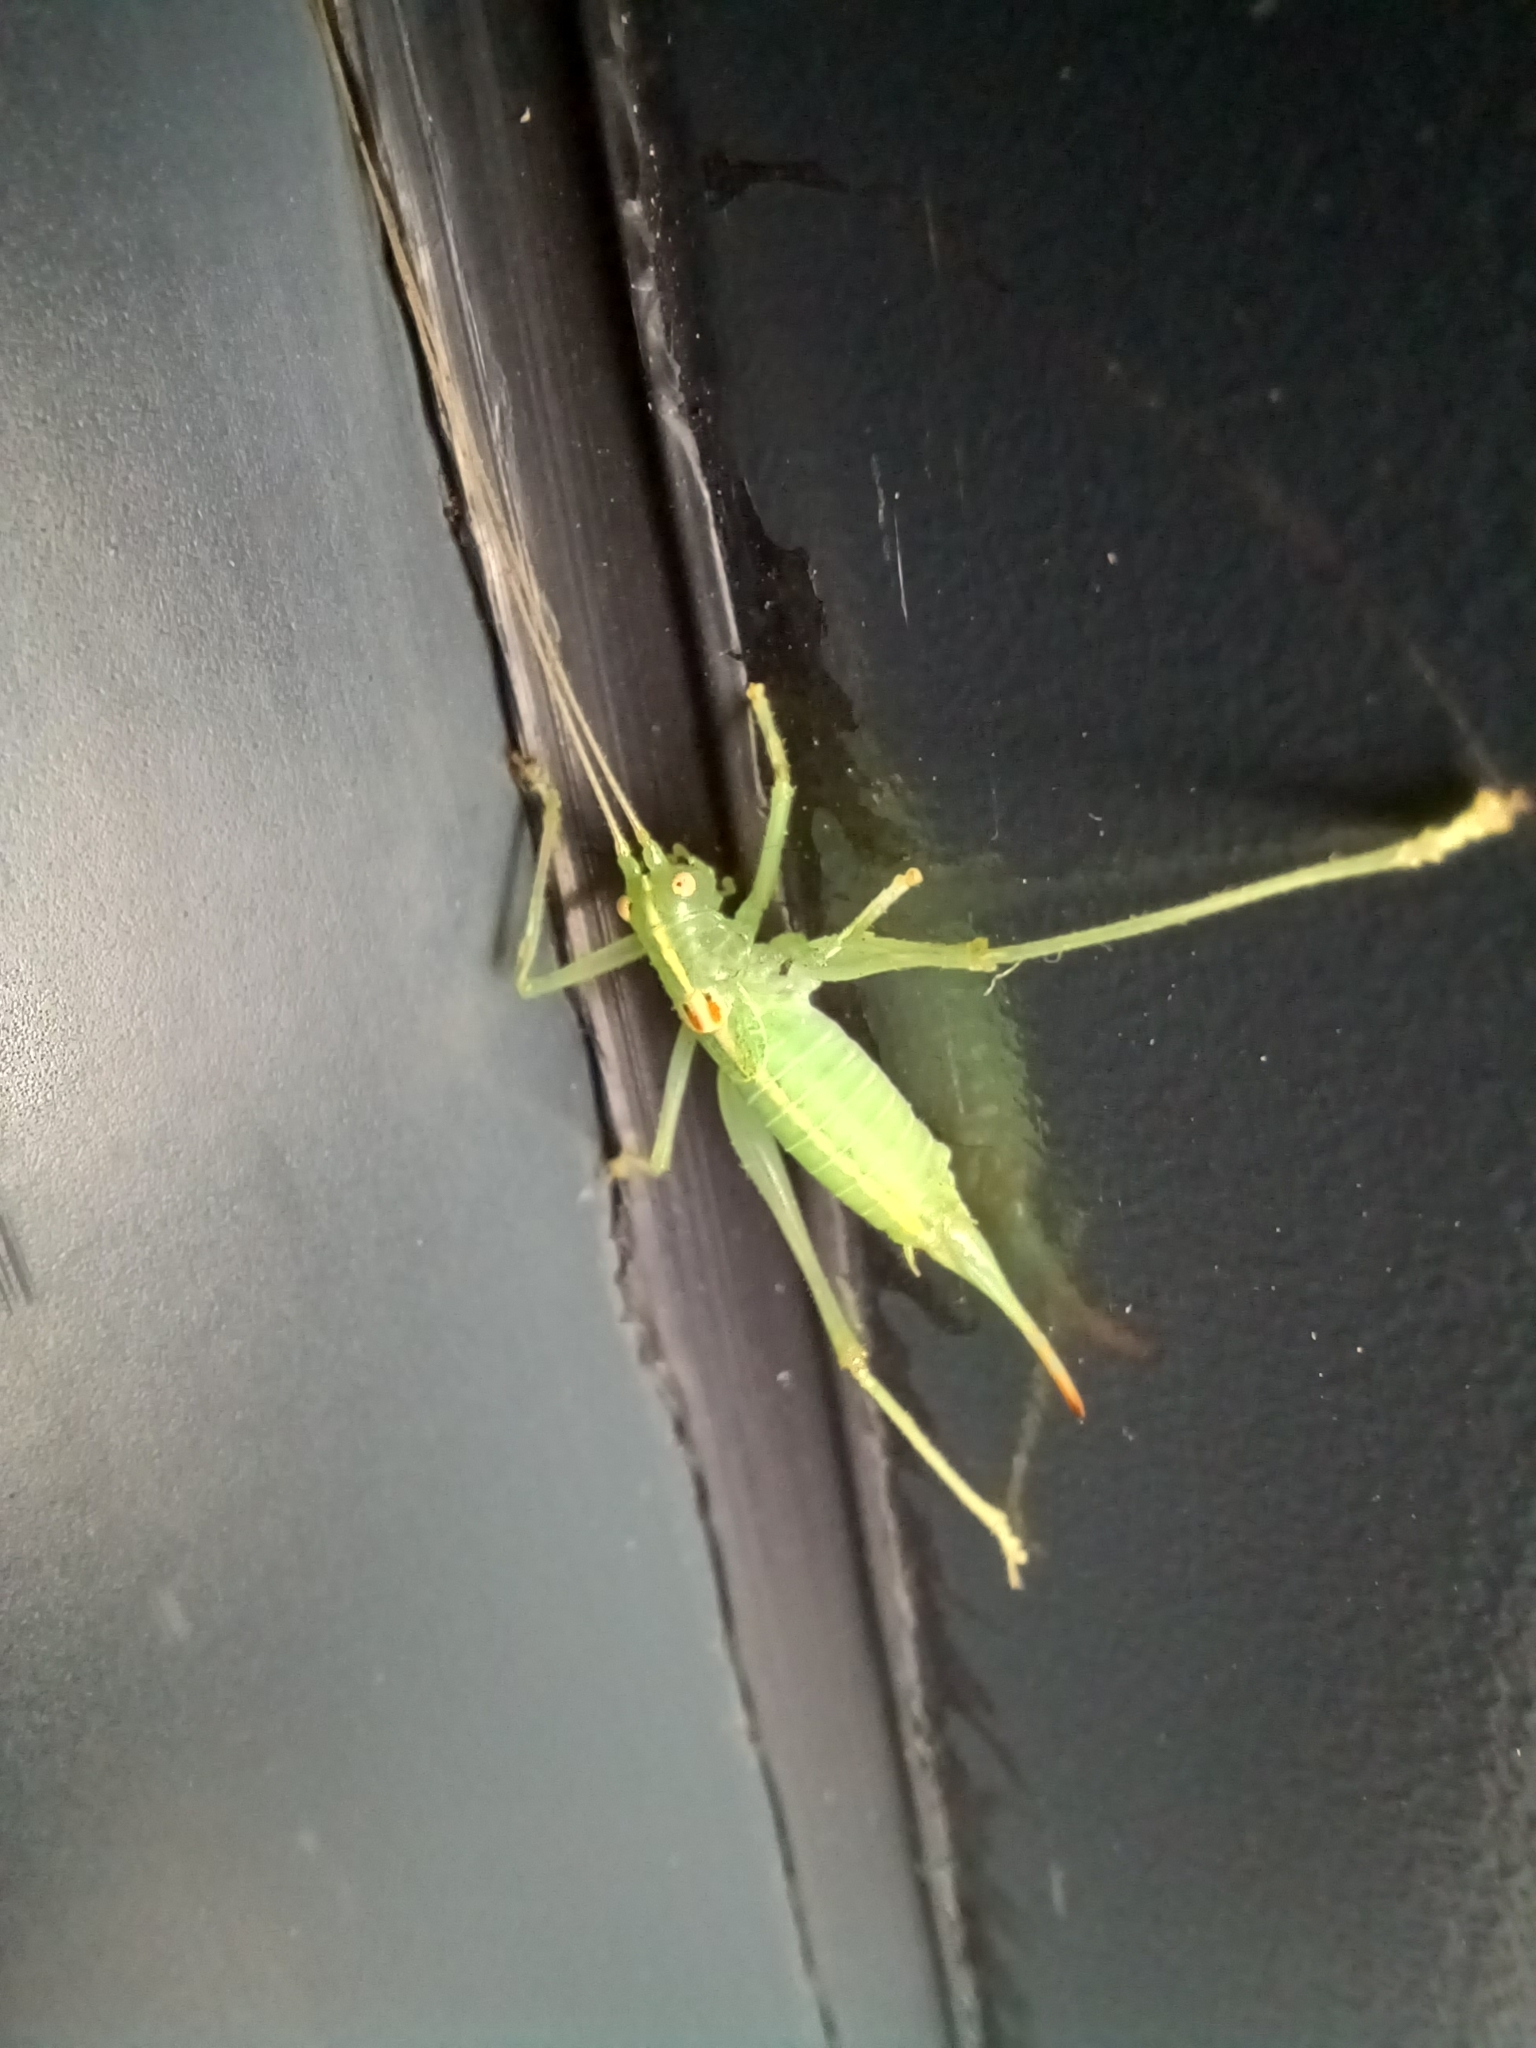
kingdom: Animalia
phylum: Arthropoda
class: Insecta
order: Orthoptera
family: Tettigoniidae
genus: Meconema
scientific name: Meconema meridionale
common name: Southern oak bush-cricket
